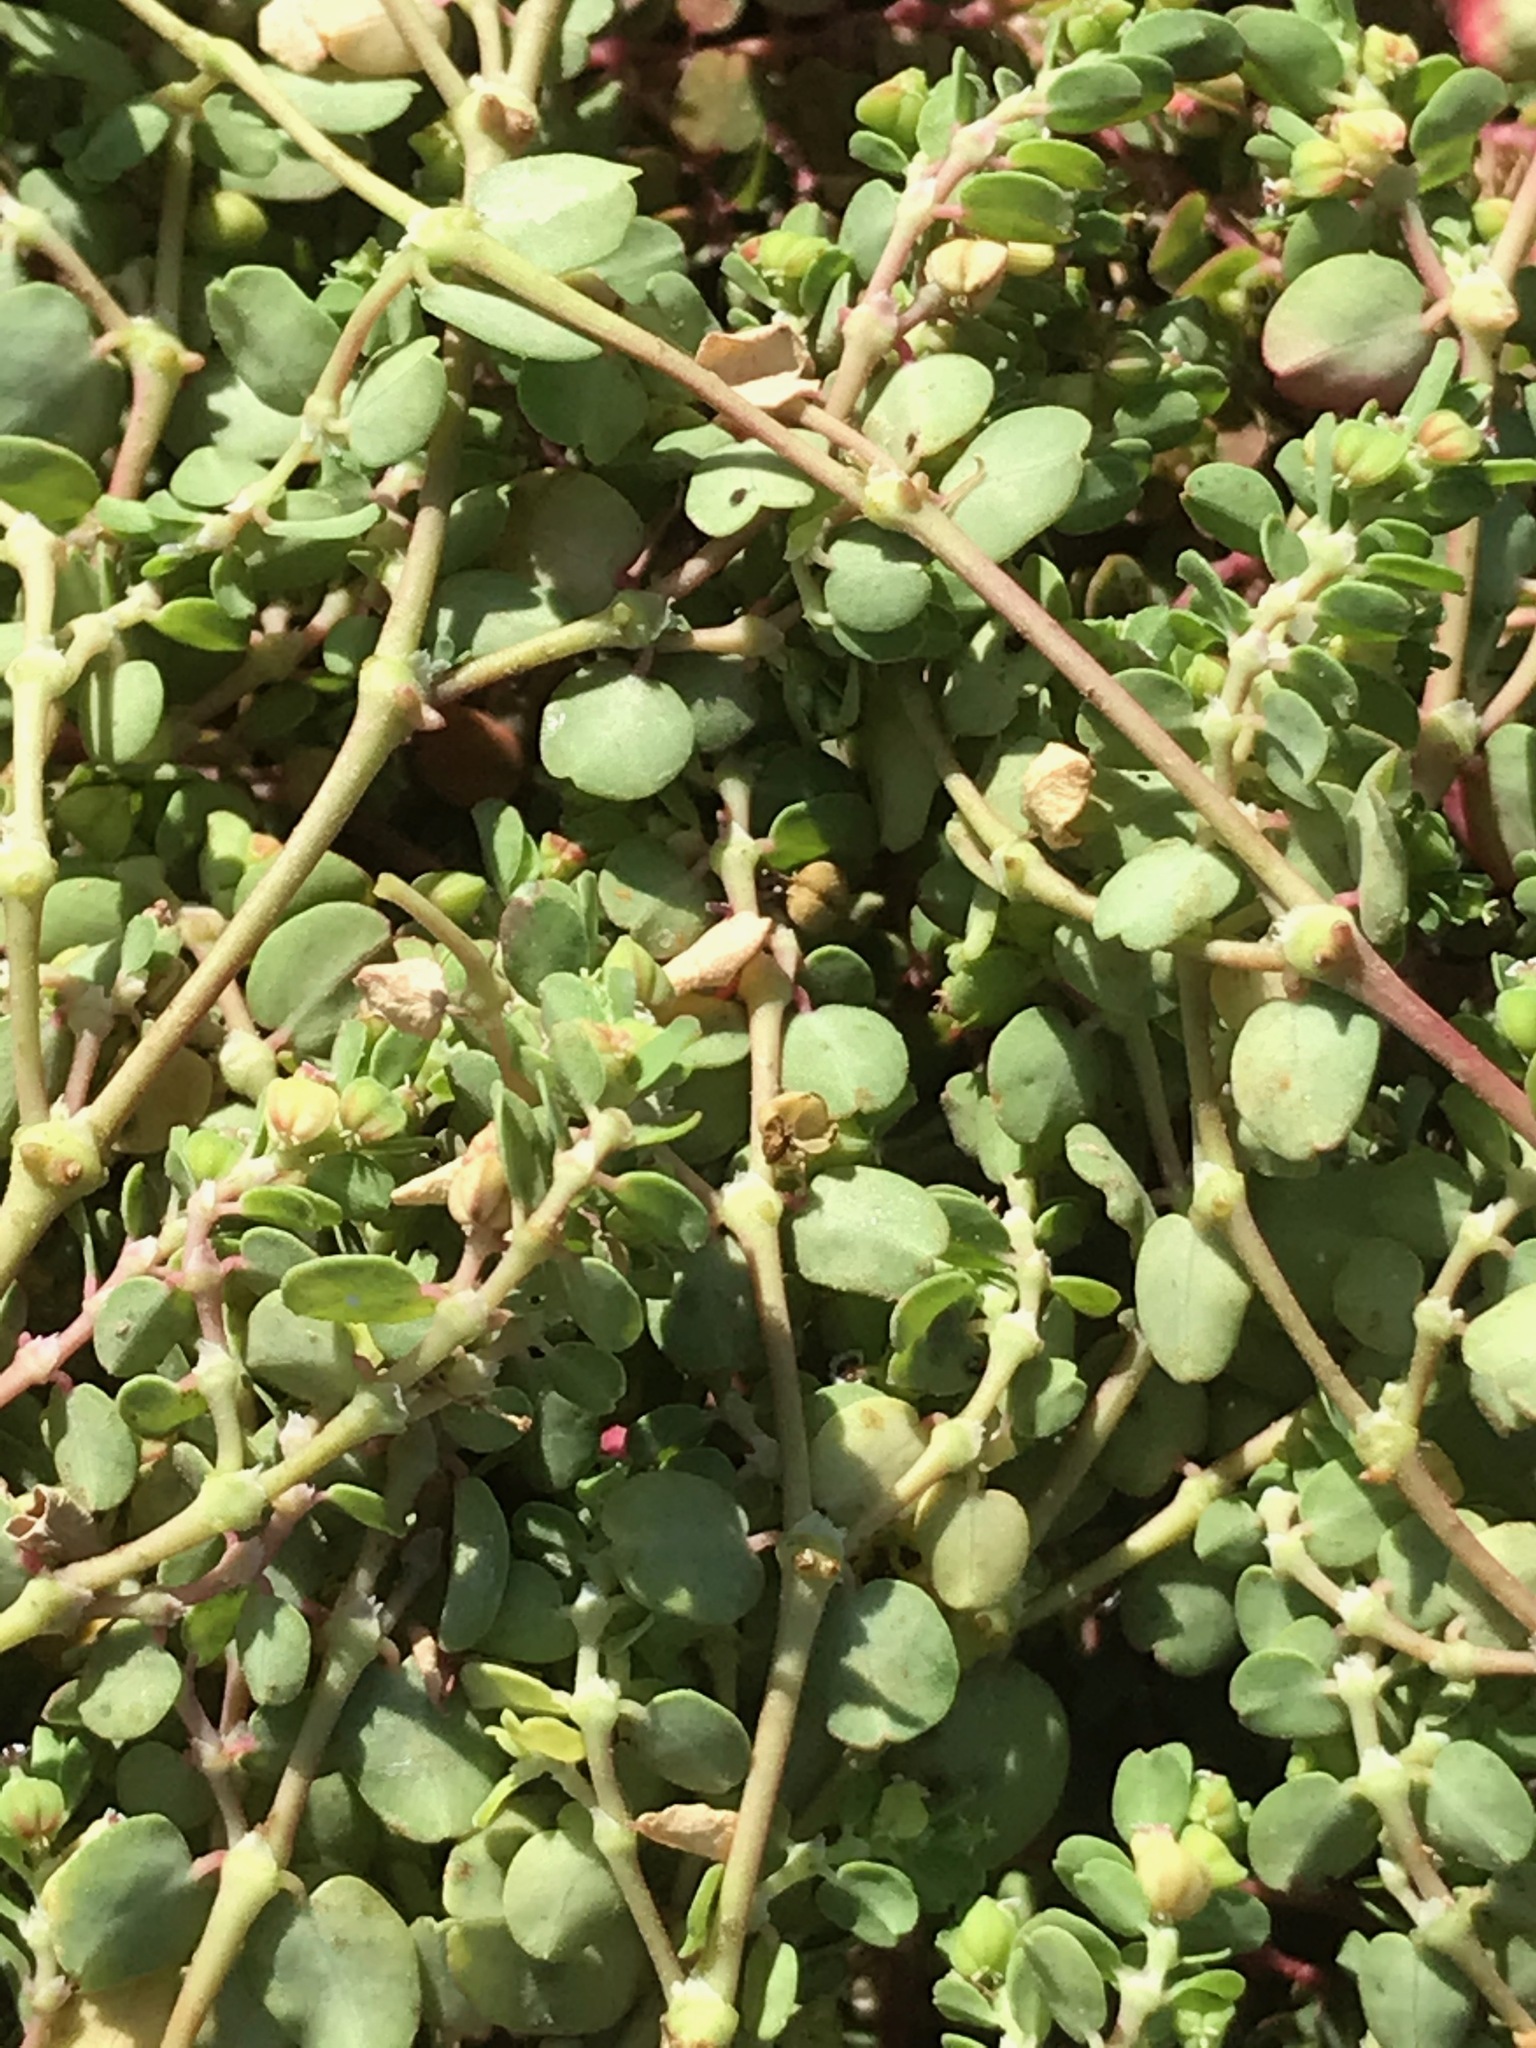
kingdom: Plantae
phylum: Tracheophyta
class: Magnoliopsida
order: Malpighiales
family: Euphorbiaceae
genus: Euphorbia
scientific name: Euphorbia serpens
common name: Matted sandmat
